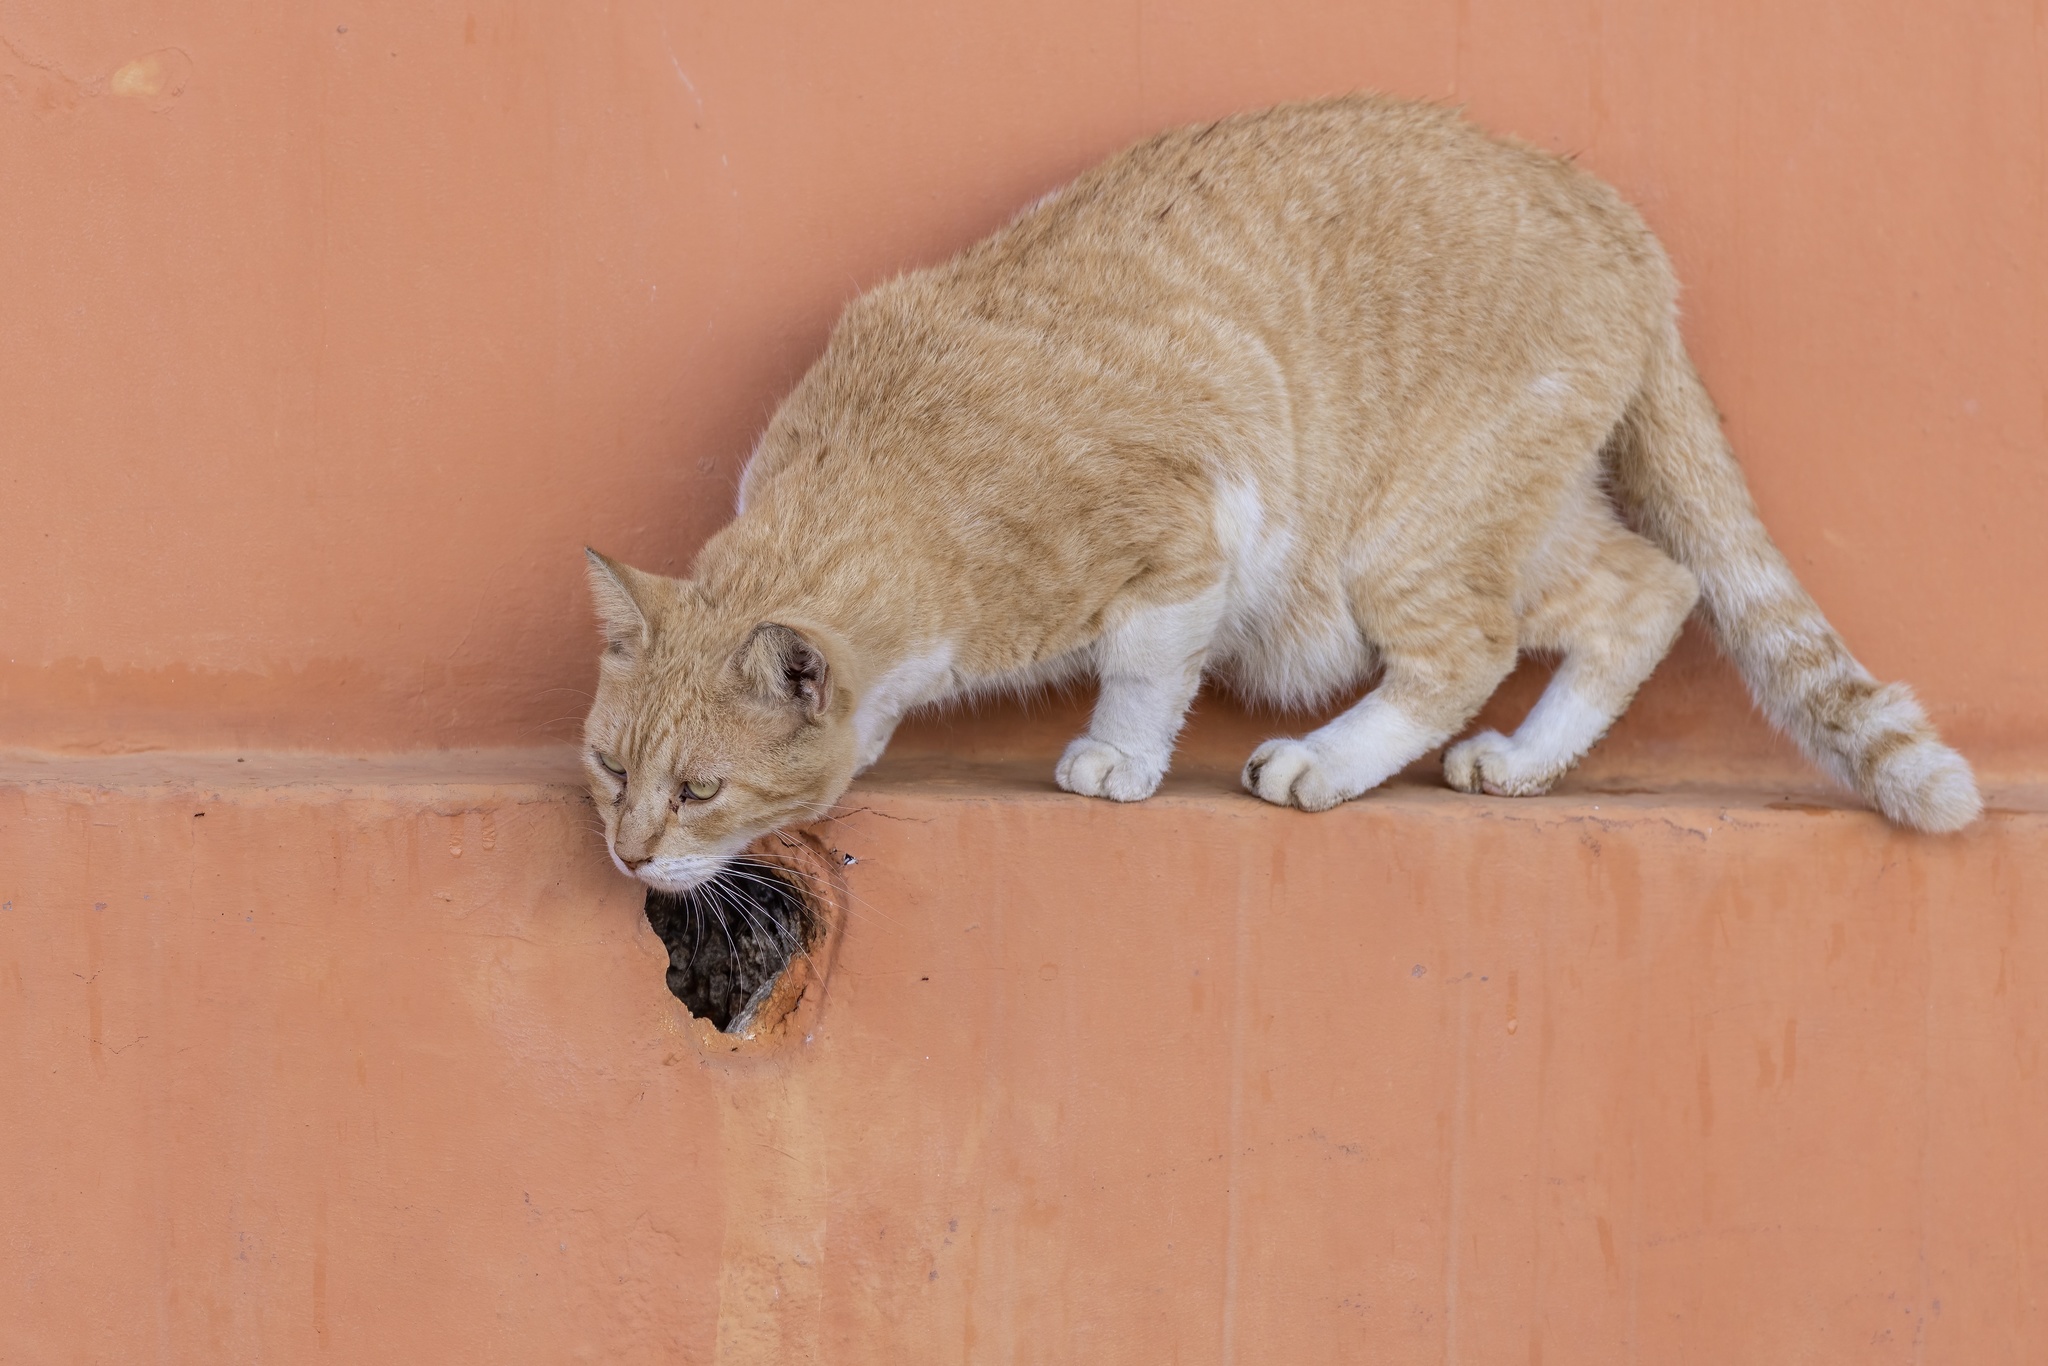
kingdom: Animalia
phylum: Chordata
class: Mammalia
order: Carnivora
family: Felidae
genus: Felis
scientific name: Felis catus
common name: Domestic cat
